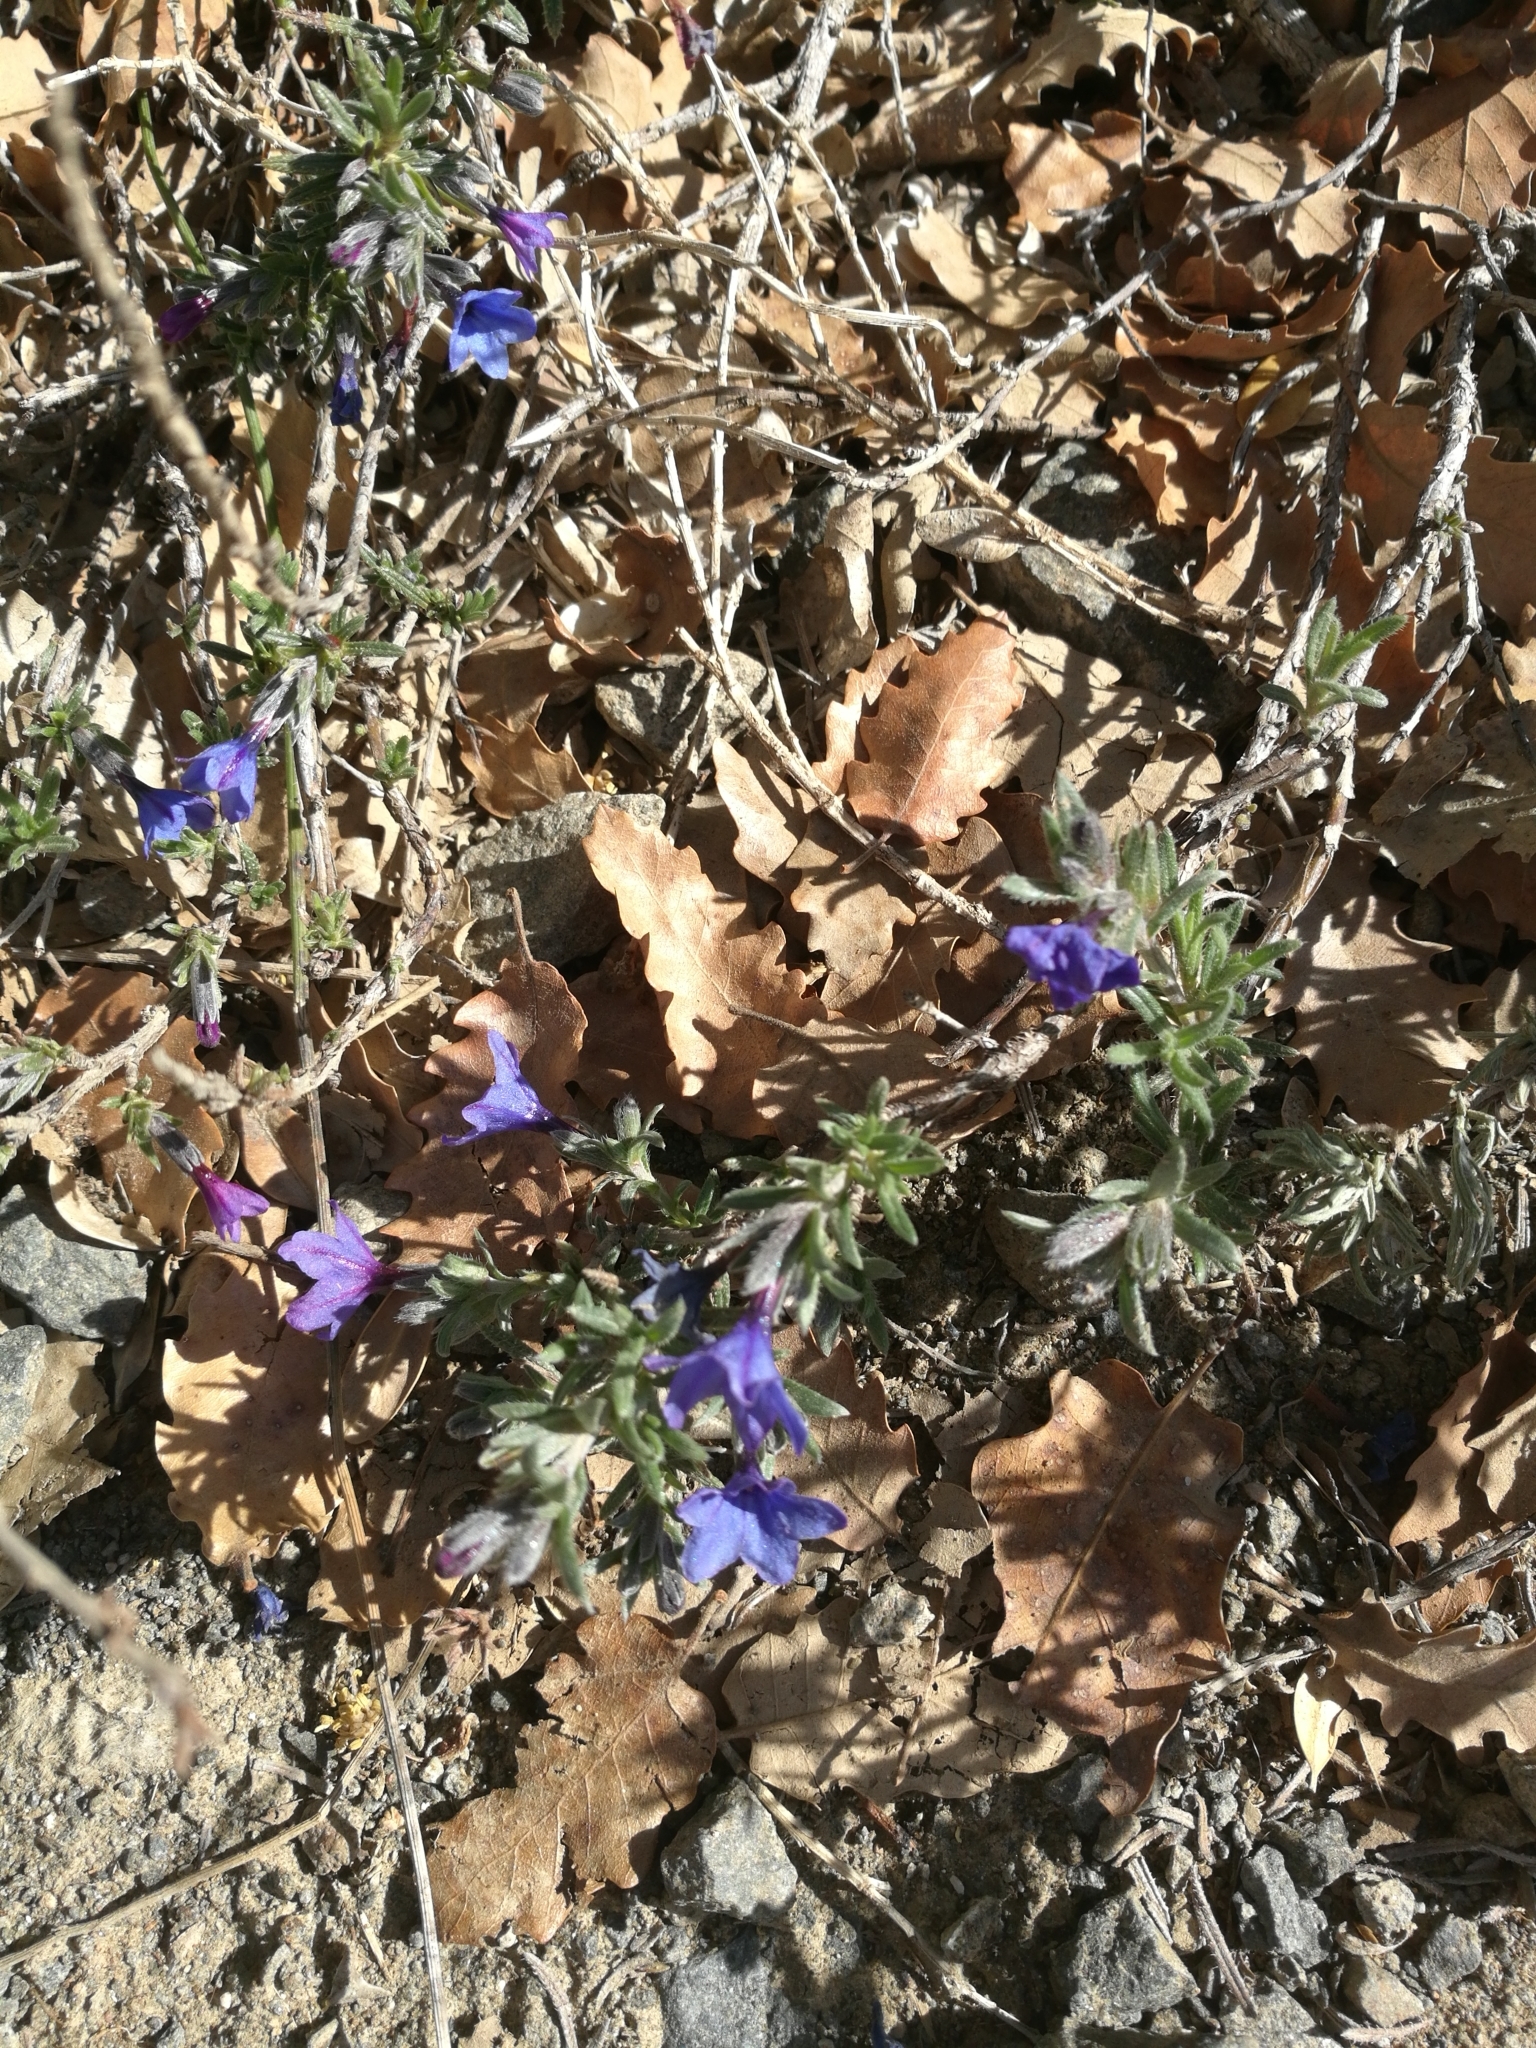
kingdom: Plantae
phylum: Tracheophyta
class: Magnoliopsida
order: Boraginales
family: Boraginaceae
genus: Lithodora
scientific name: Lithodora fruticosa
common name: Shrubby gromwell
